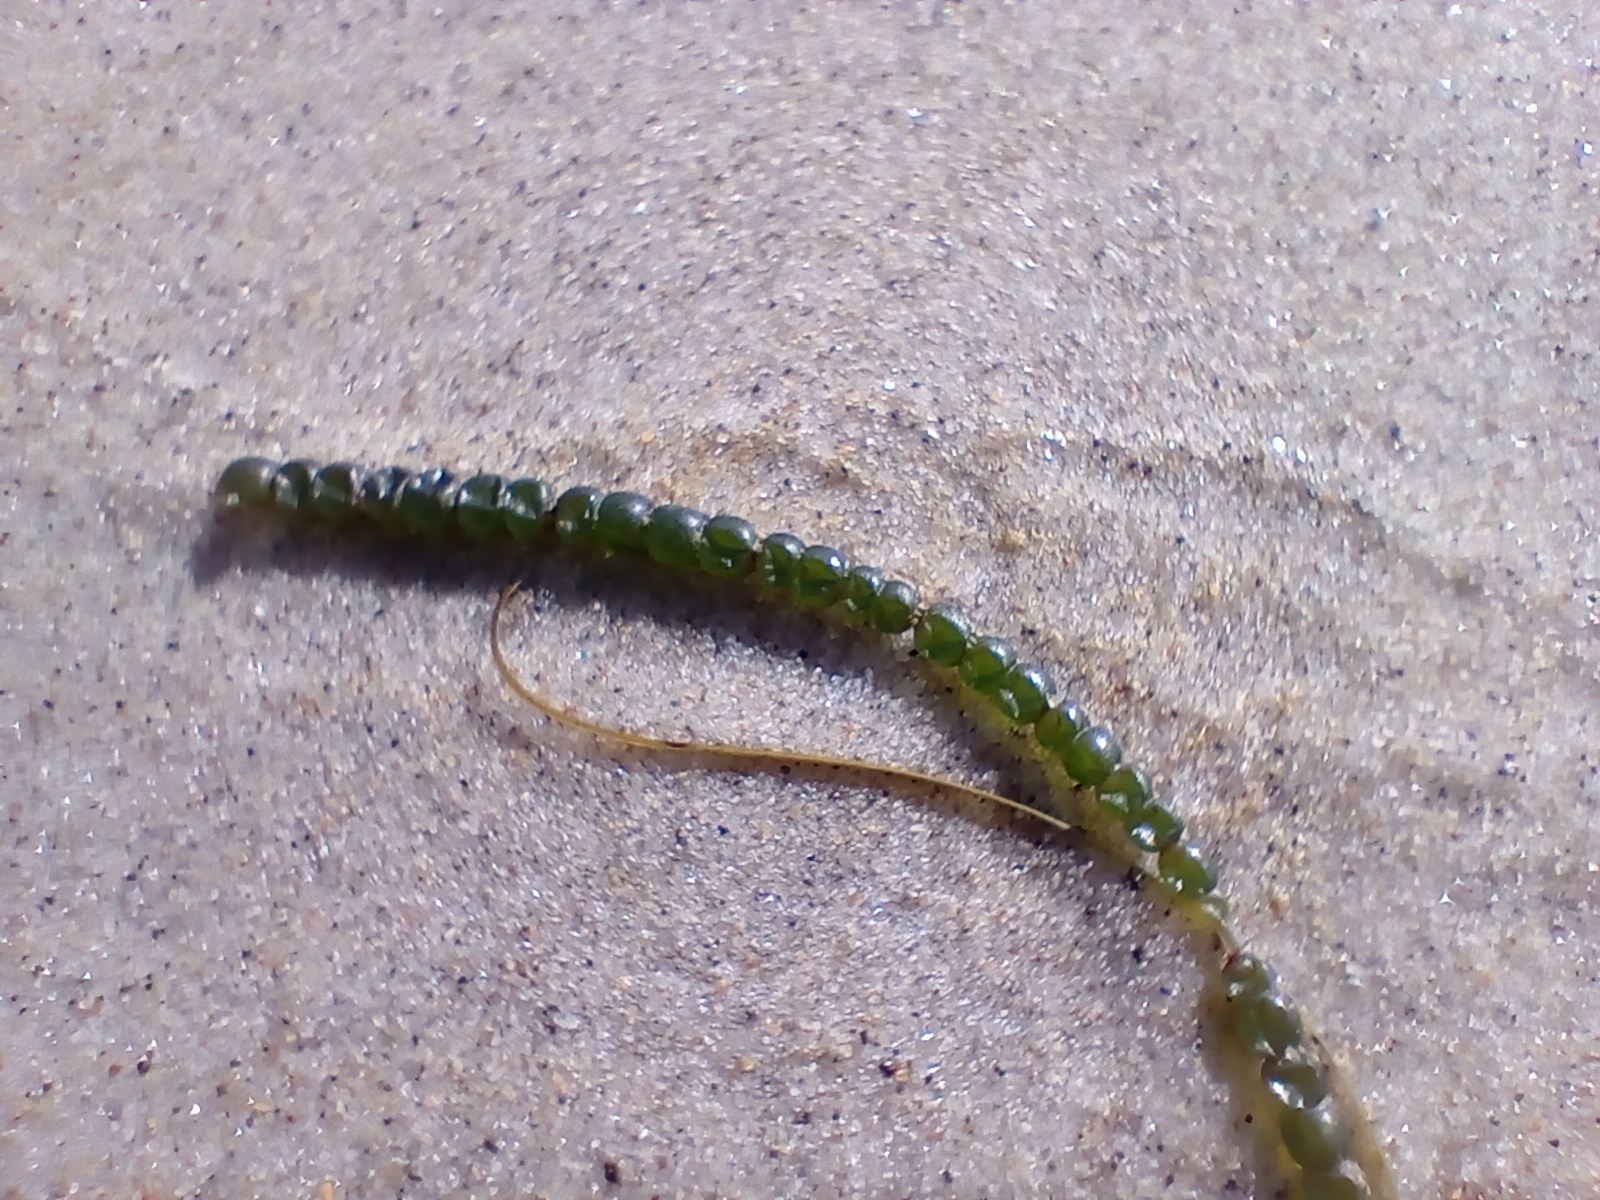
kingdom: Plantae
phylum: Chlorophyta
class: Ulvophyceae
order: Cladophorales
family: Cladophoraceae
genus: Chaetomorpha
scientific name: Chaetomorpha coliformis
